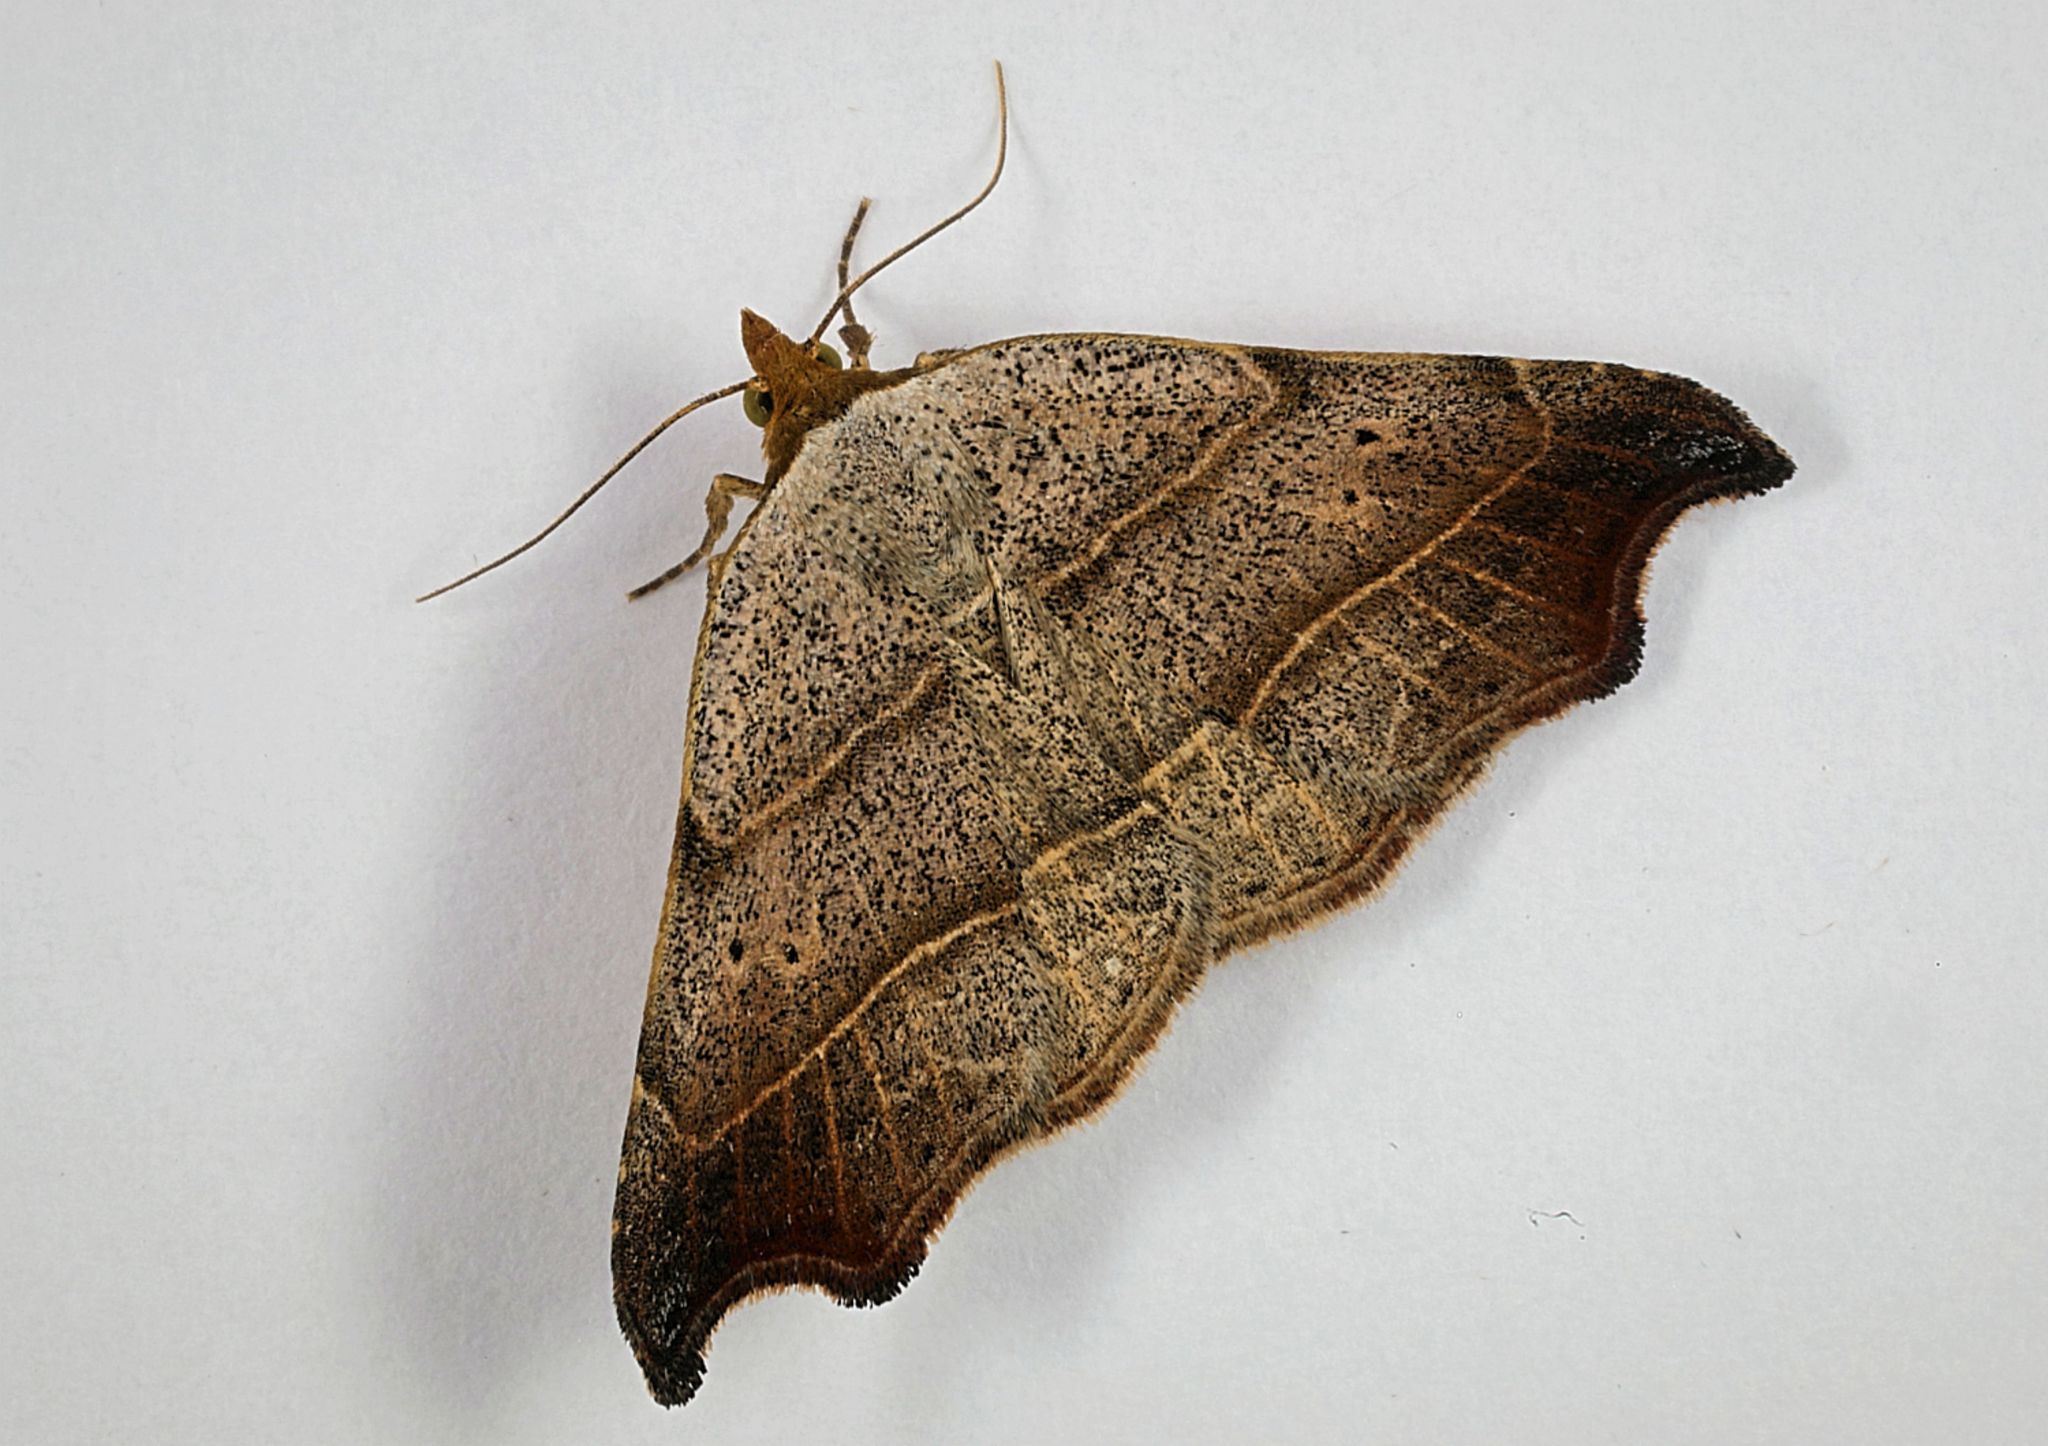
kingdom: Animalia
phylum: Arthropoda
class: Insecta
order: Lepidoptera
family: Erebidae
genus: Laspeyria
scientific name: Laspeyria flexula
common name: Beautiful hook-tip
